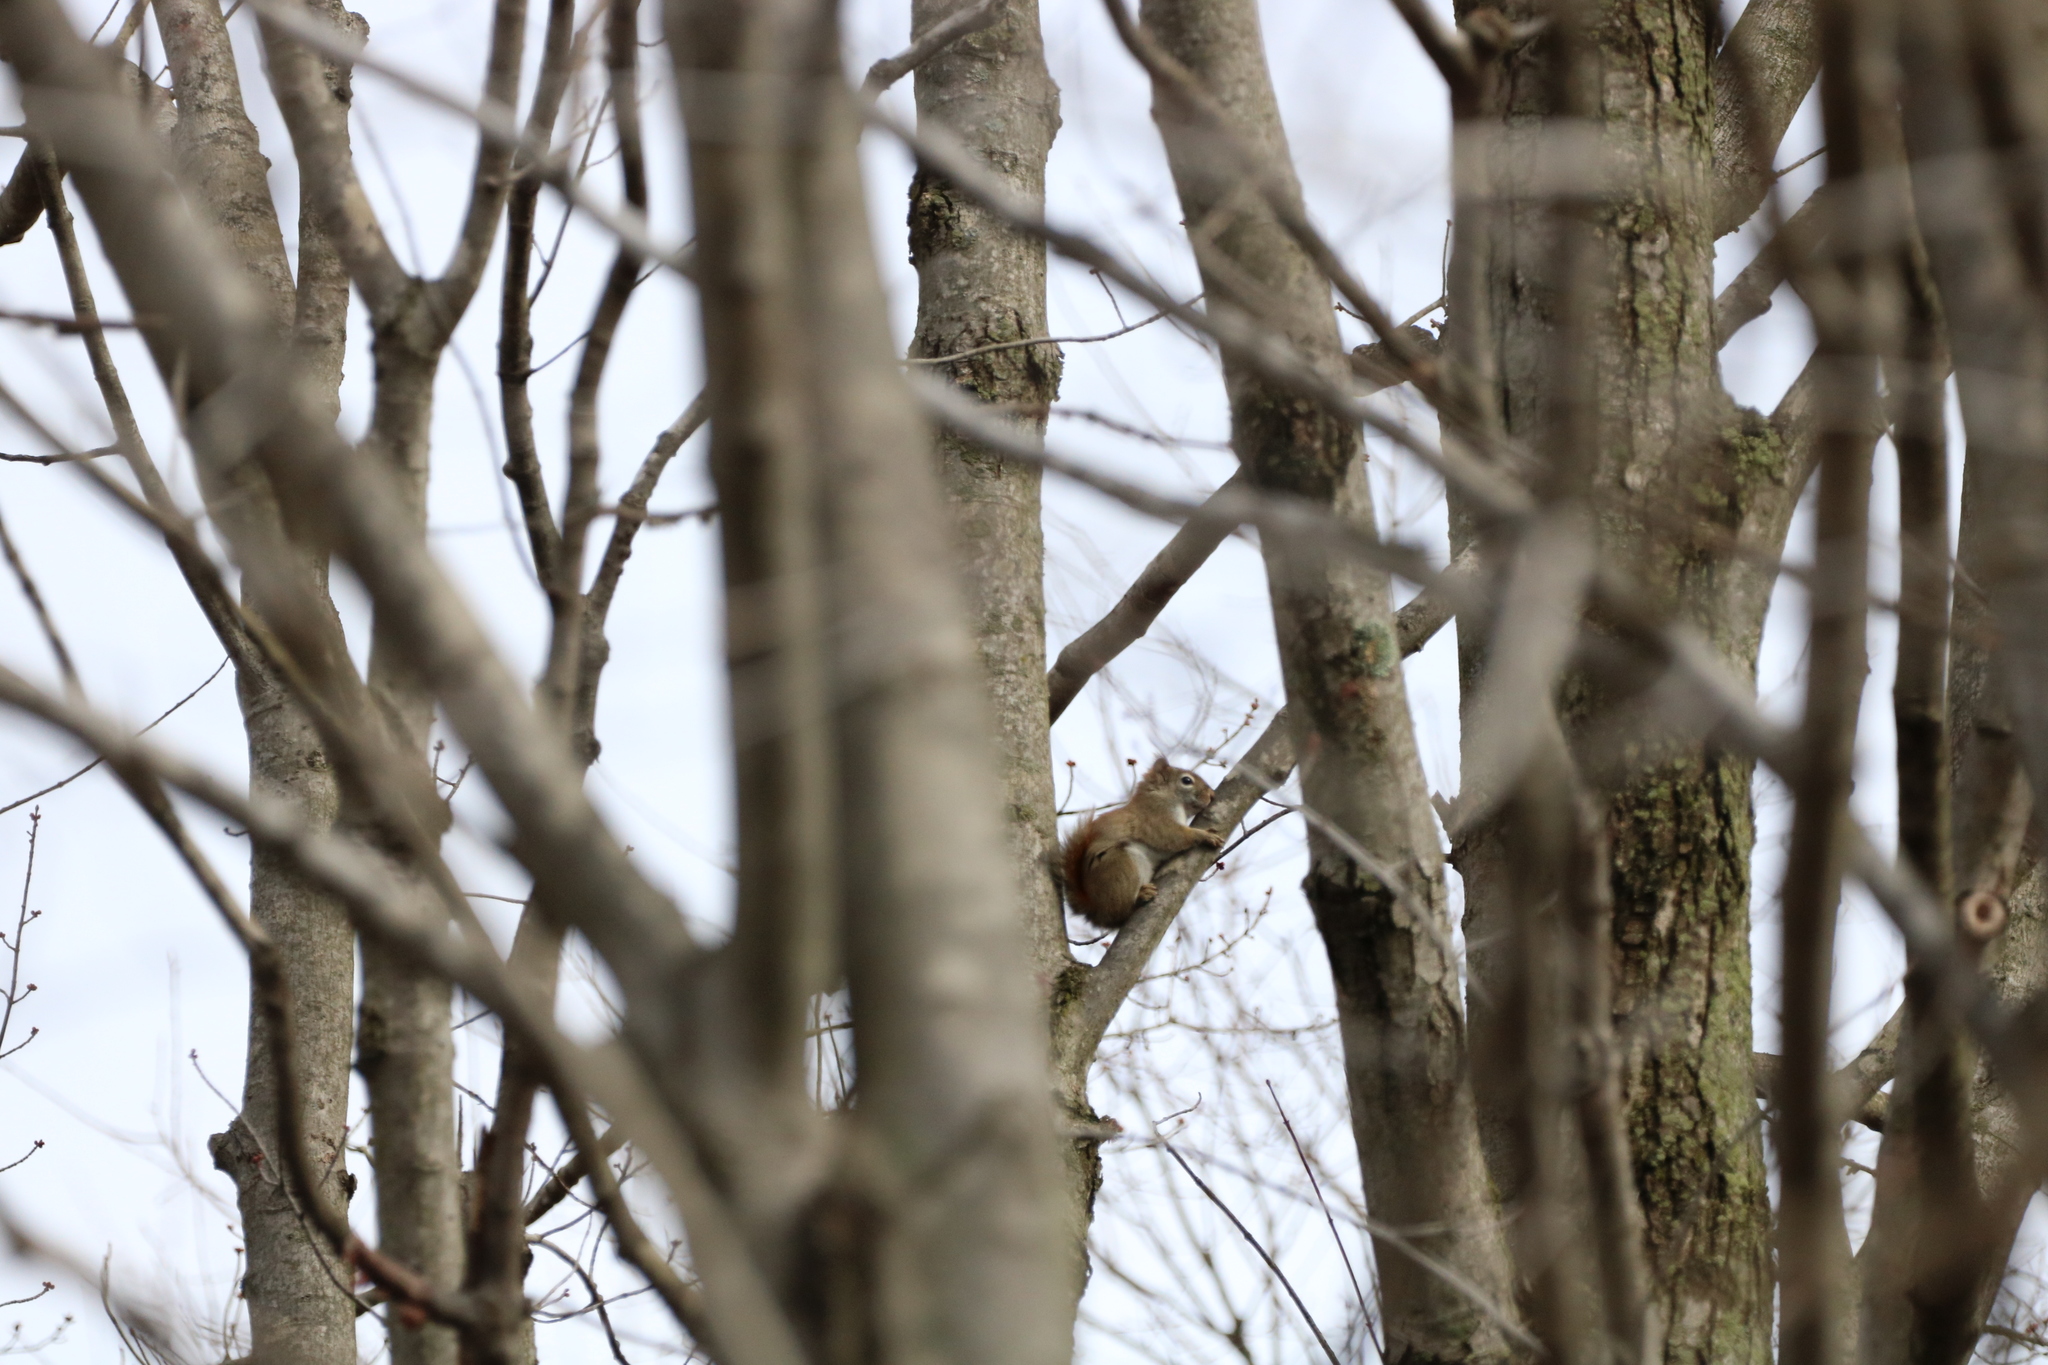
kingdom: Animalia
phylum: Chordata
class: Mammalia
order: Rodentia
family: Sciuridae
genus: Tamiasciurus
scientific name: Tamiasciurus hudsonicus
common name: Red squirrel
